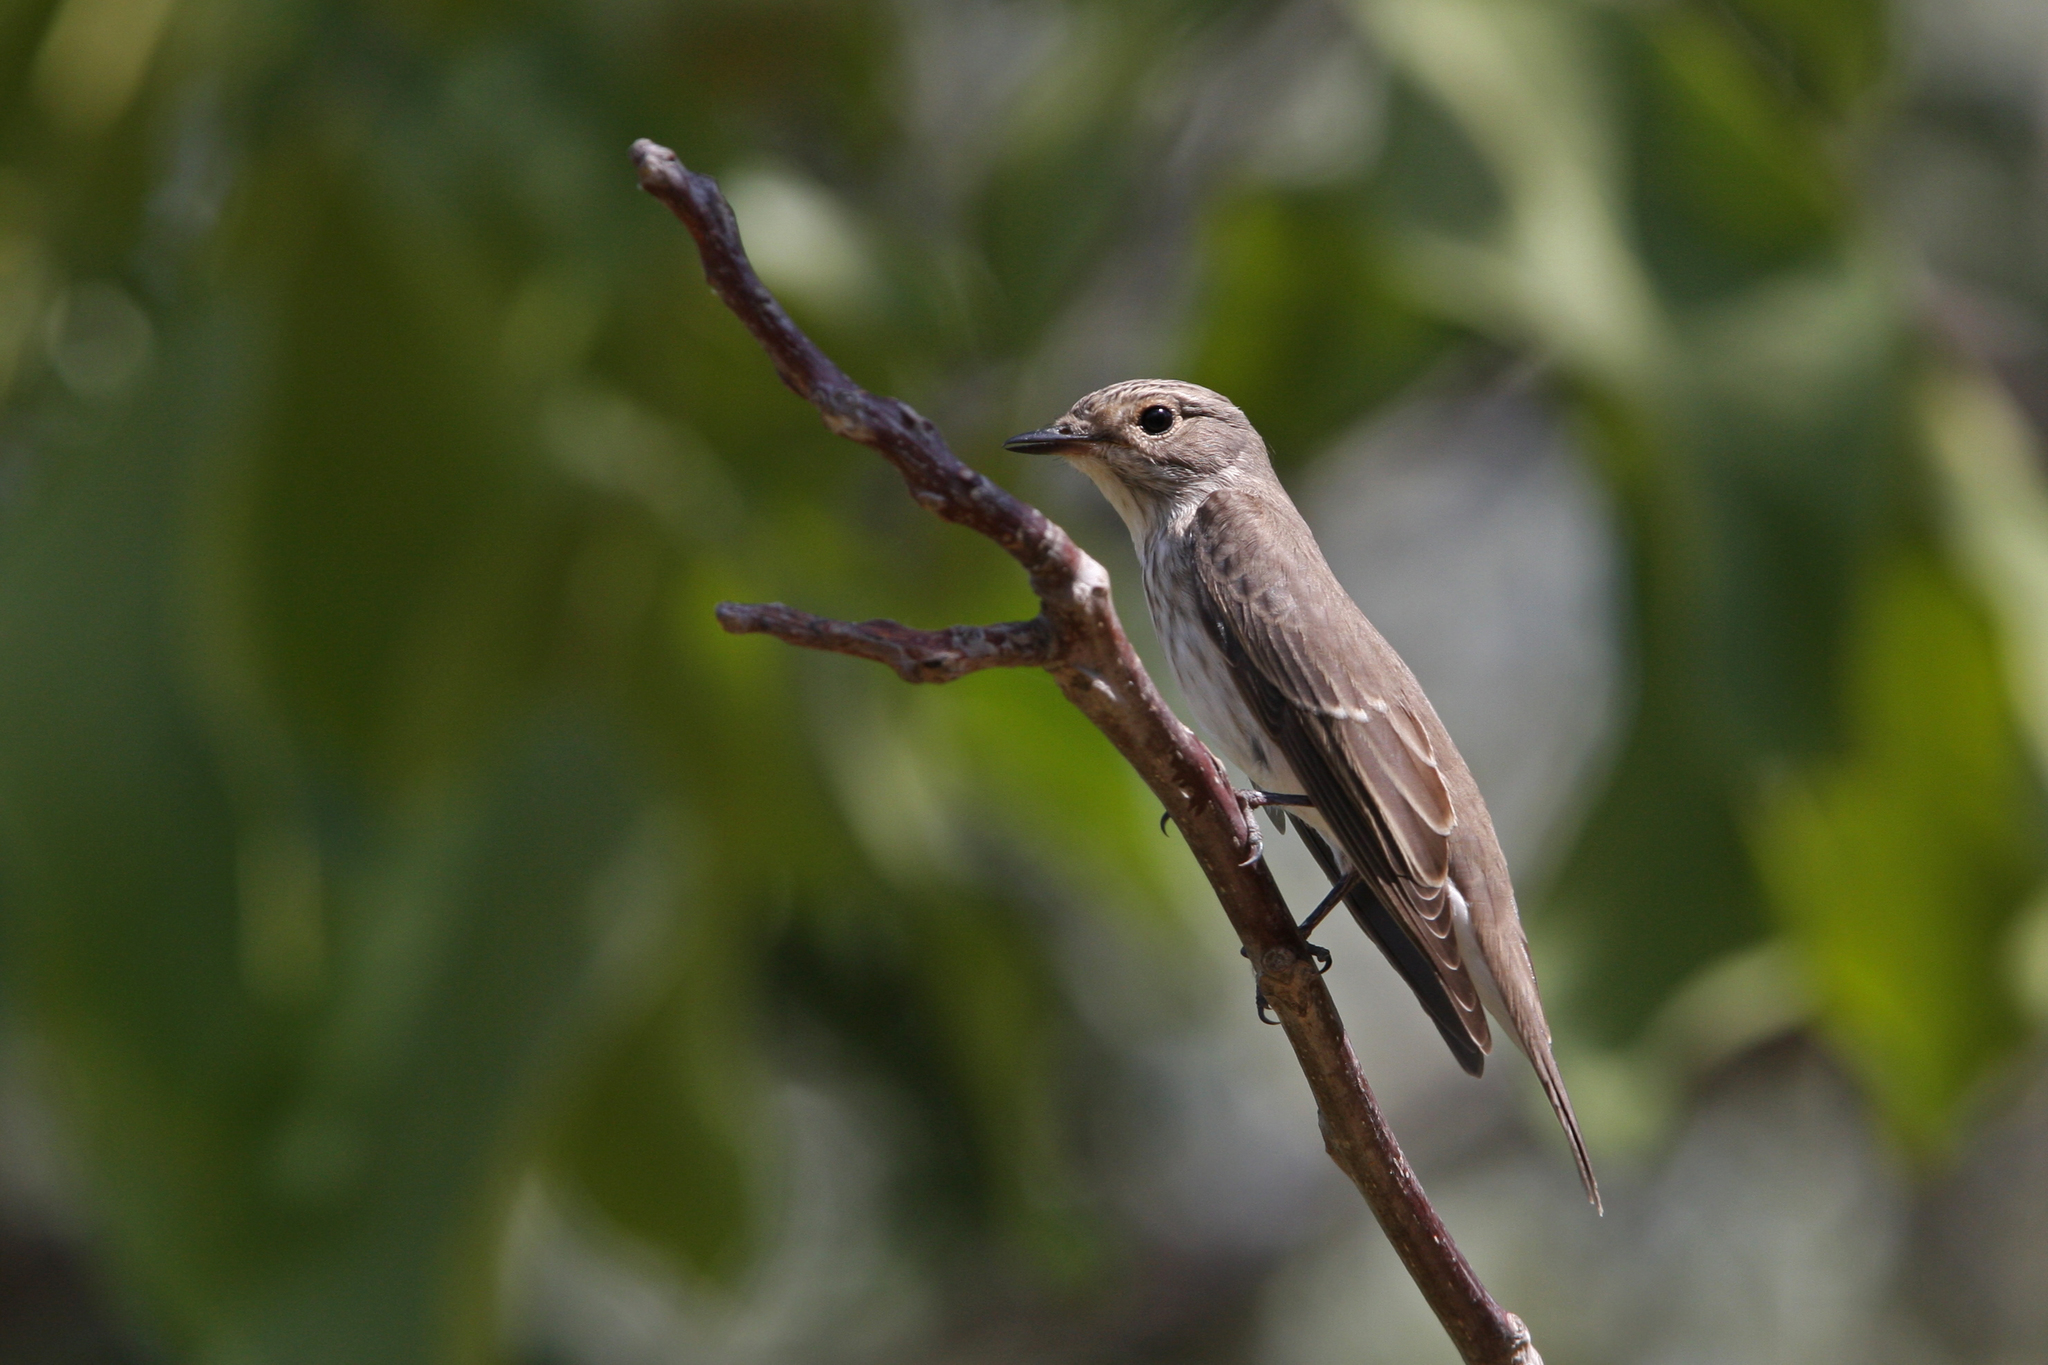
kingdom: Animalia
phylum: Chordata
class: Aves
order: Passeriformes
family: Muscicapidae
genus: Muscicapa
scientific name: Muscicapa striata
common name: Spotted flycatcher
